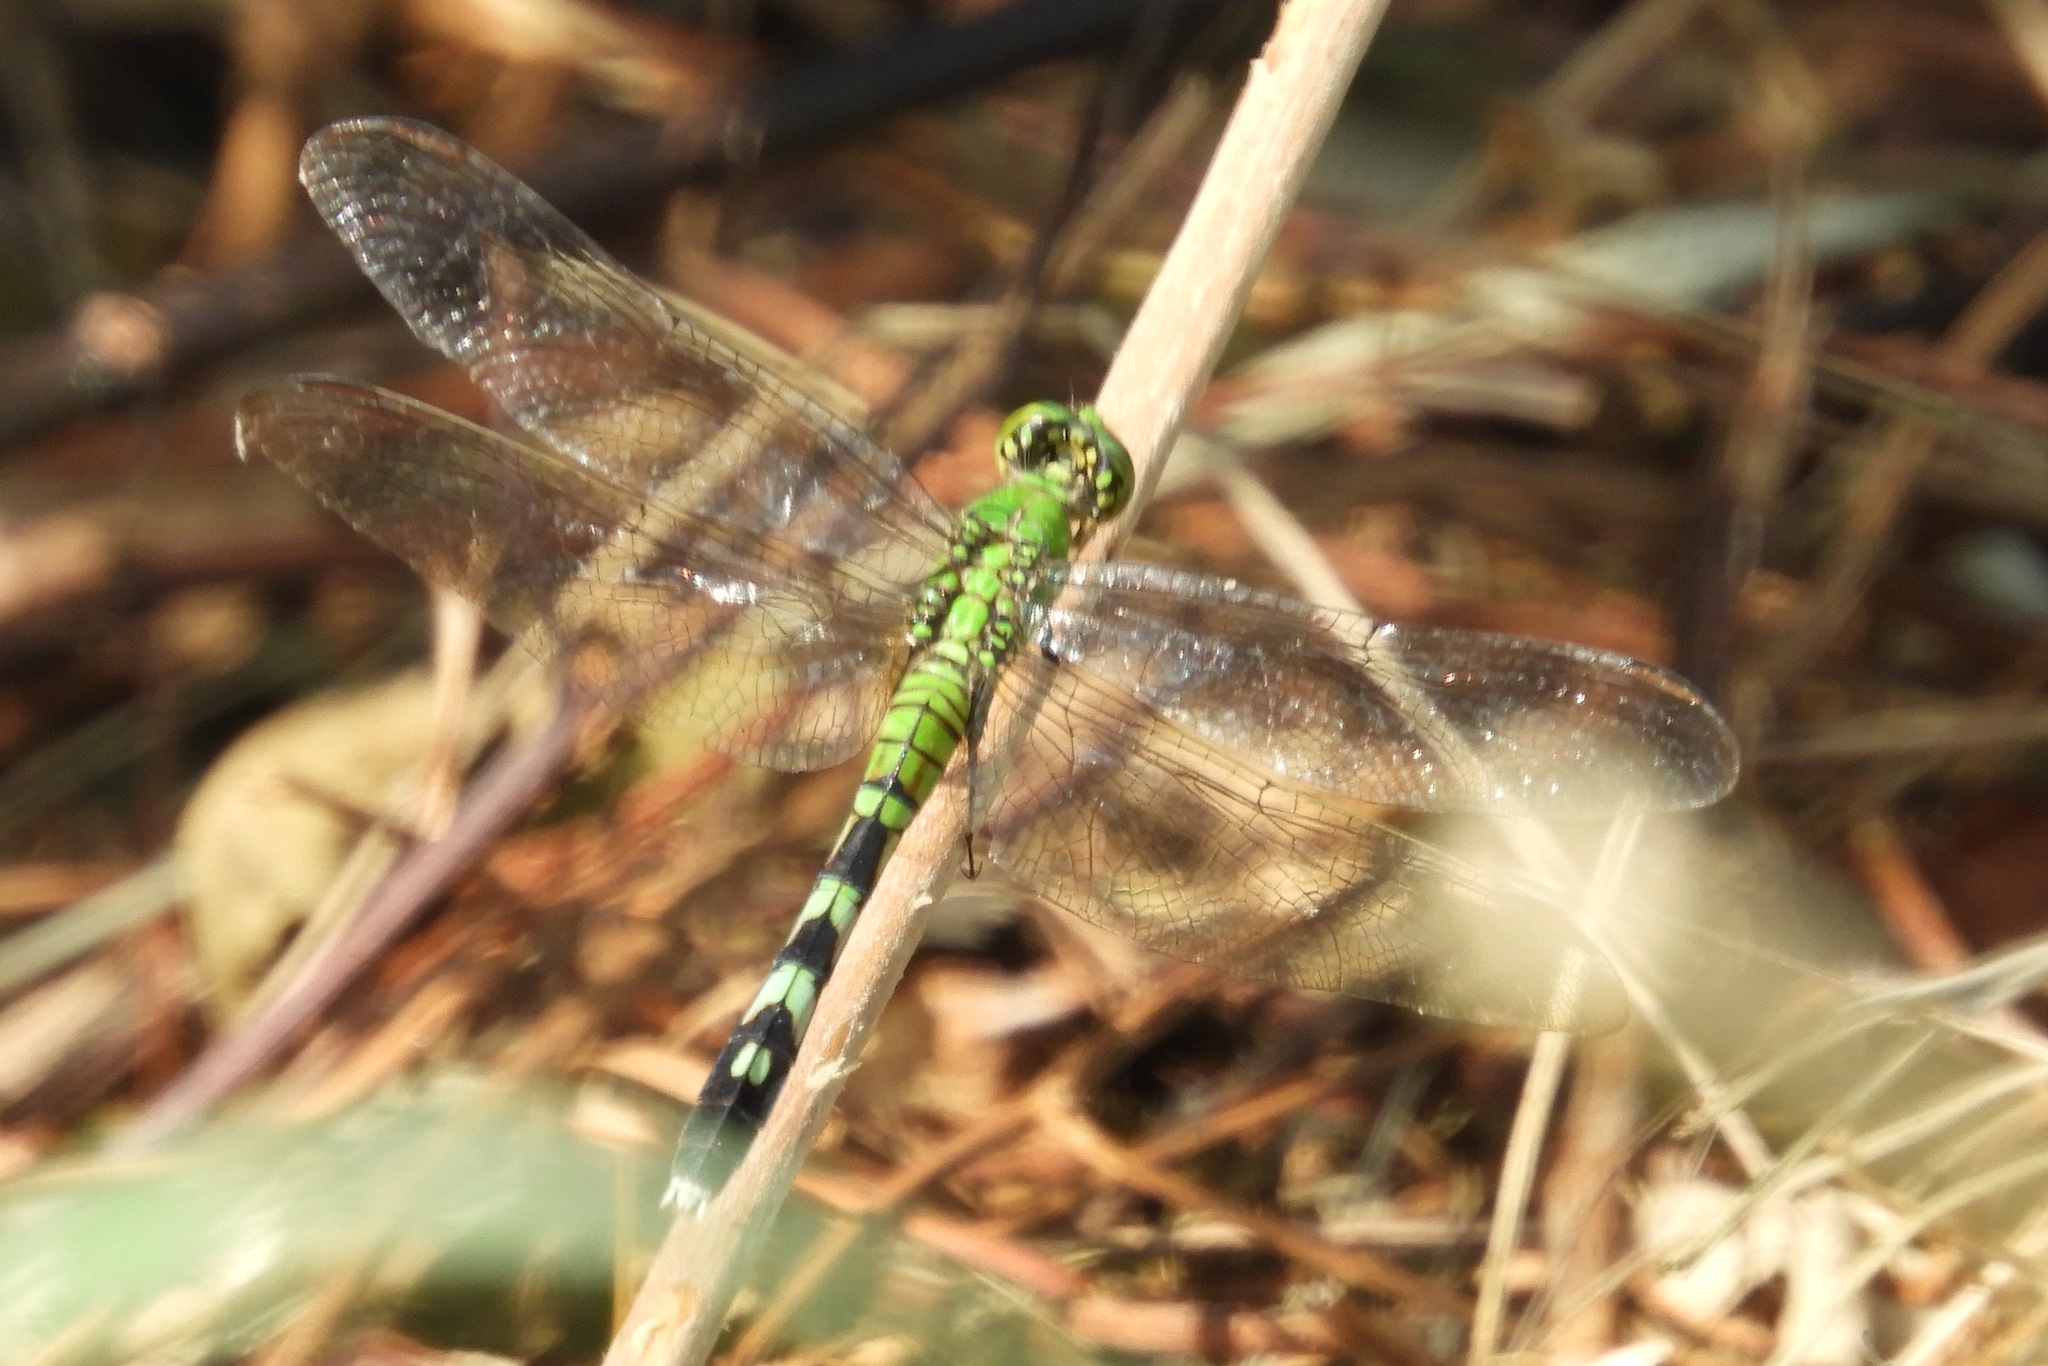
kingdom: Animalia
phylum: Arthropoda
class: Insecta
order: Odonata
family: Libellulidae
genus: Erythemis
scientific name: Erythemis simplicicollis
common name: Eastern pondhawk
